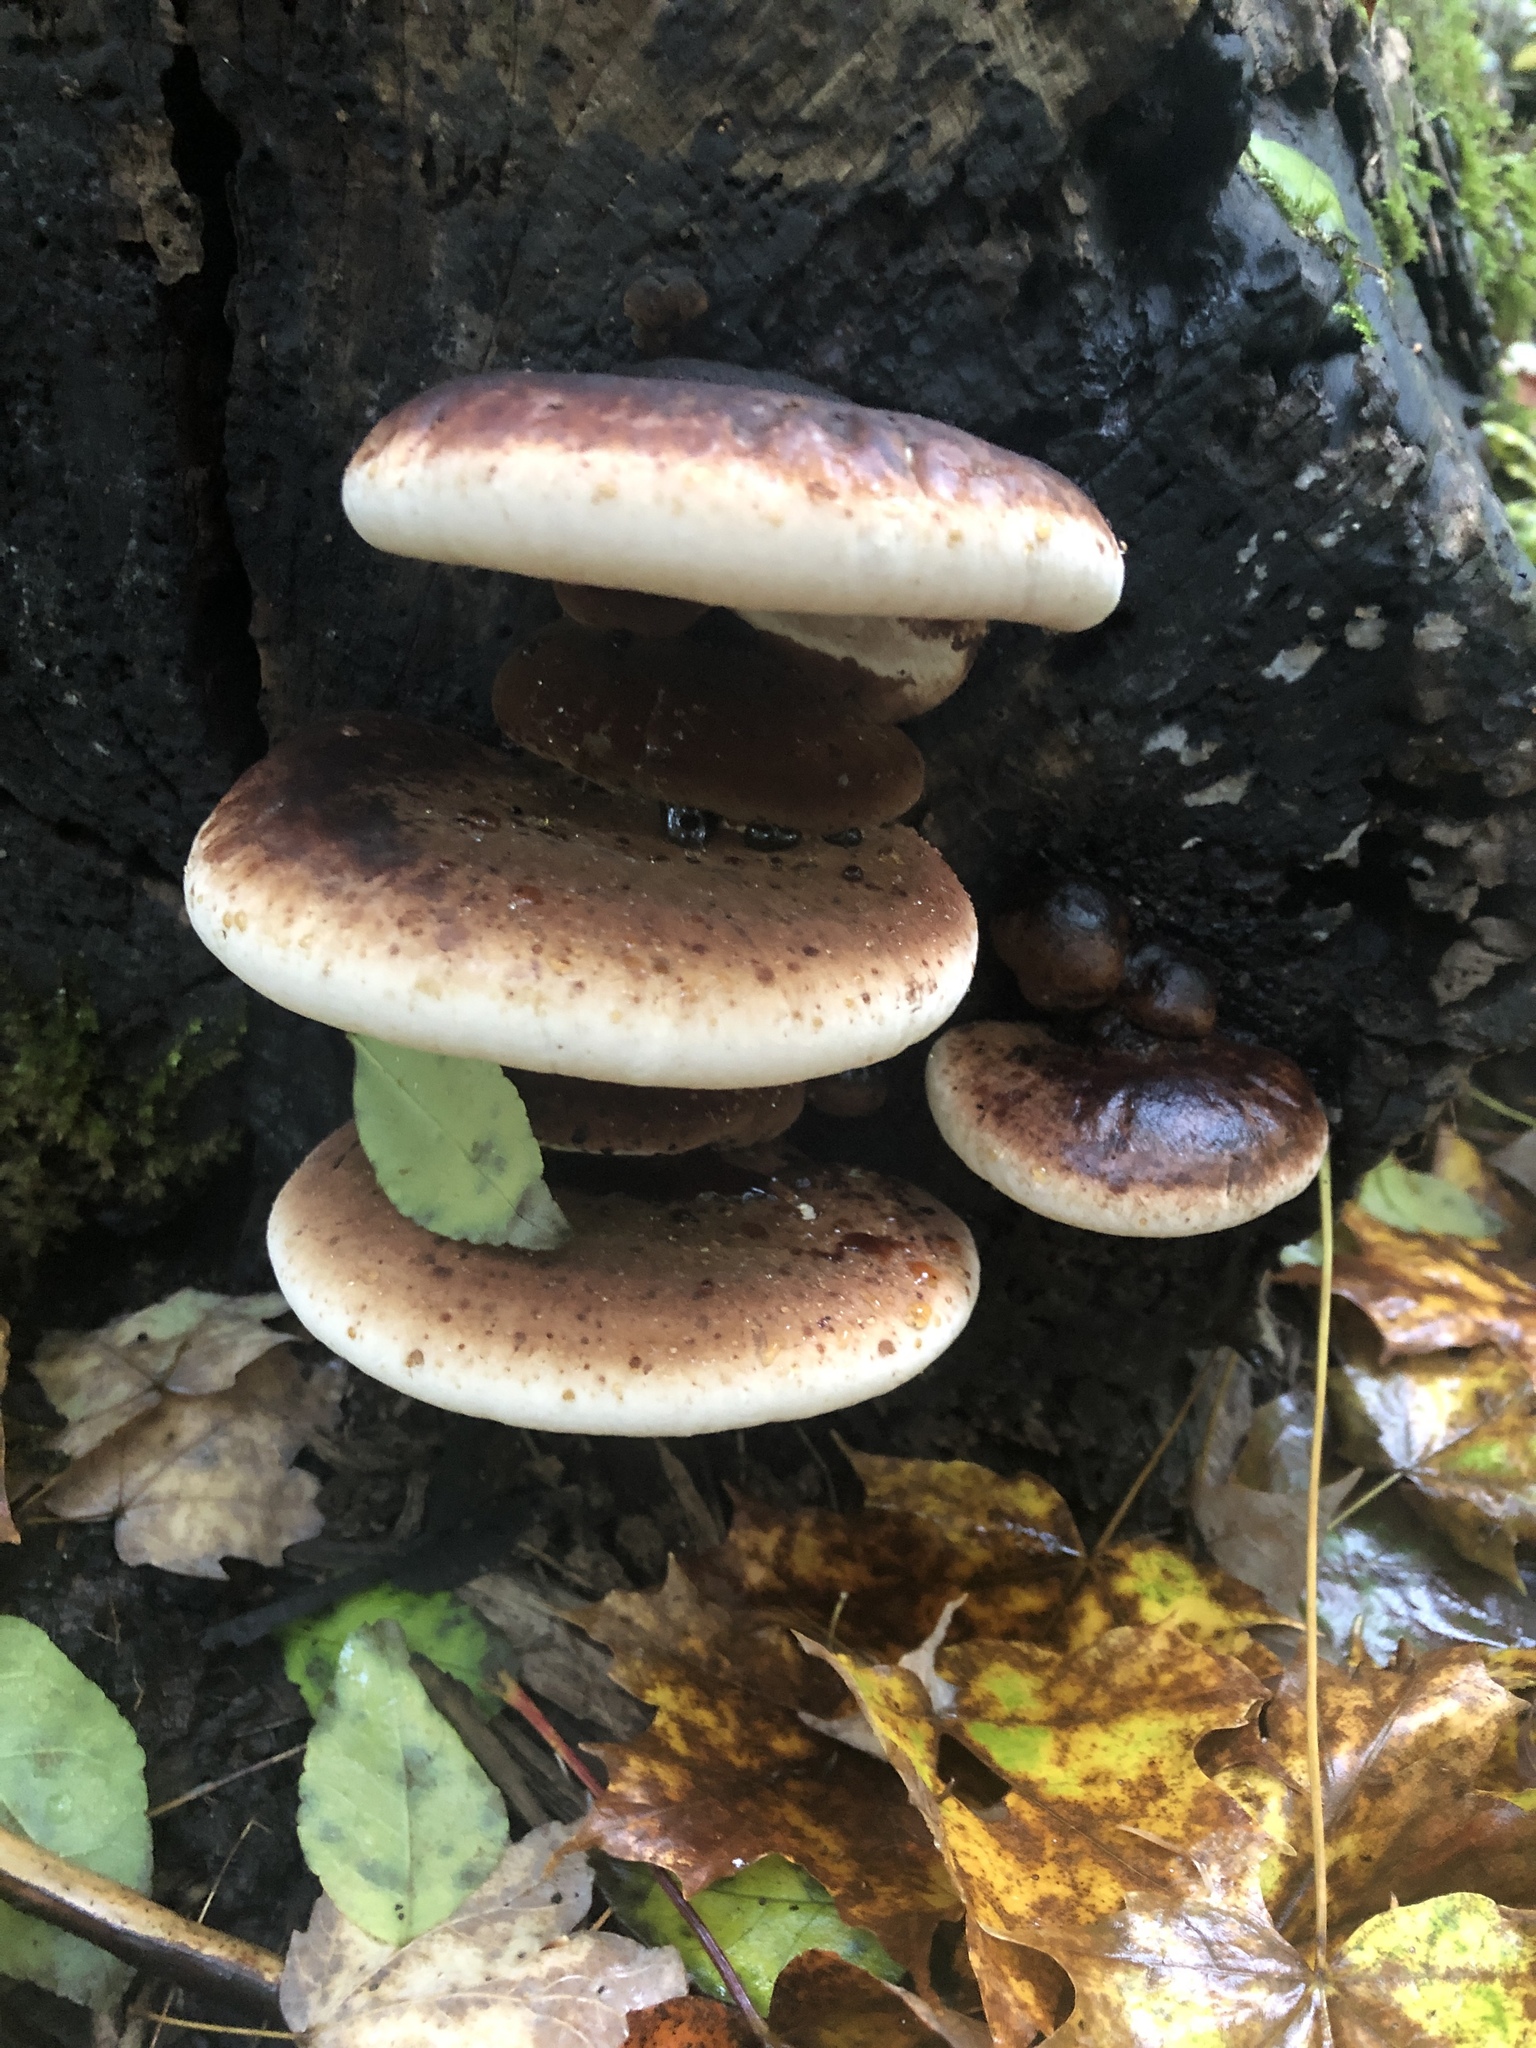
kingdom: Fungi
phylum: Basidiomycota
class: Agaricomycetes
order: Polyporales
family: Ischnodermataceae
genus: Ischnoderma
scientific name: Ischnoderma resinosum
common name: Resinous polypore
